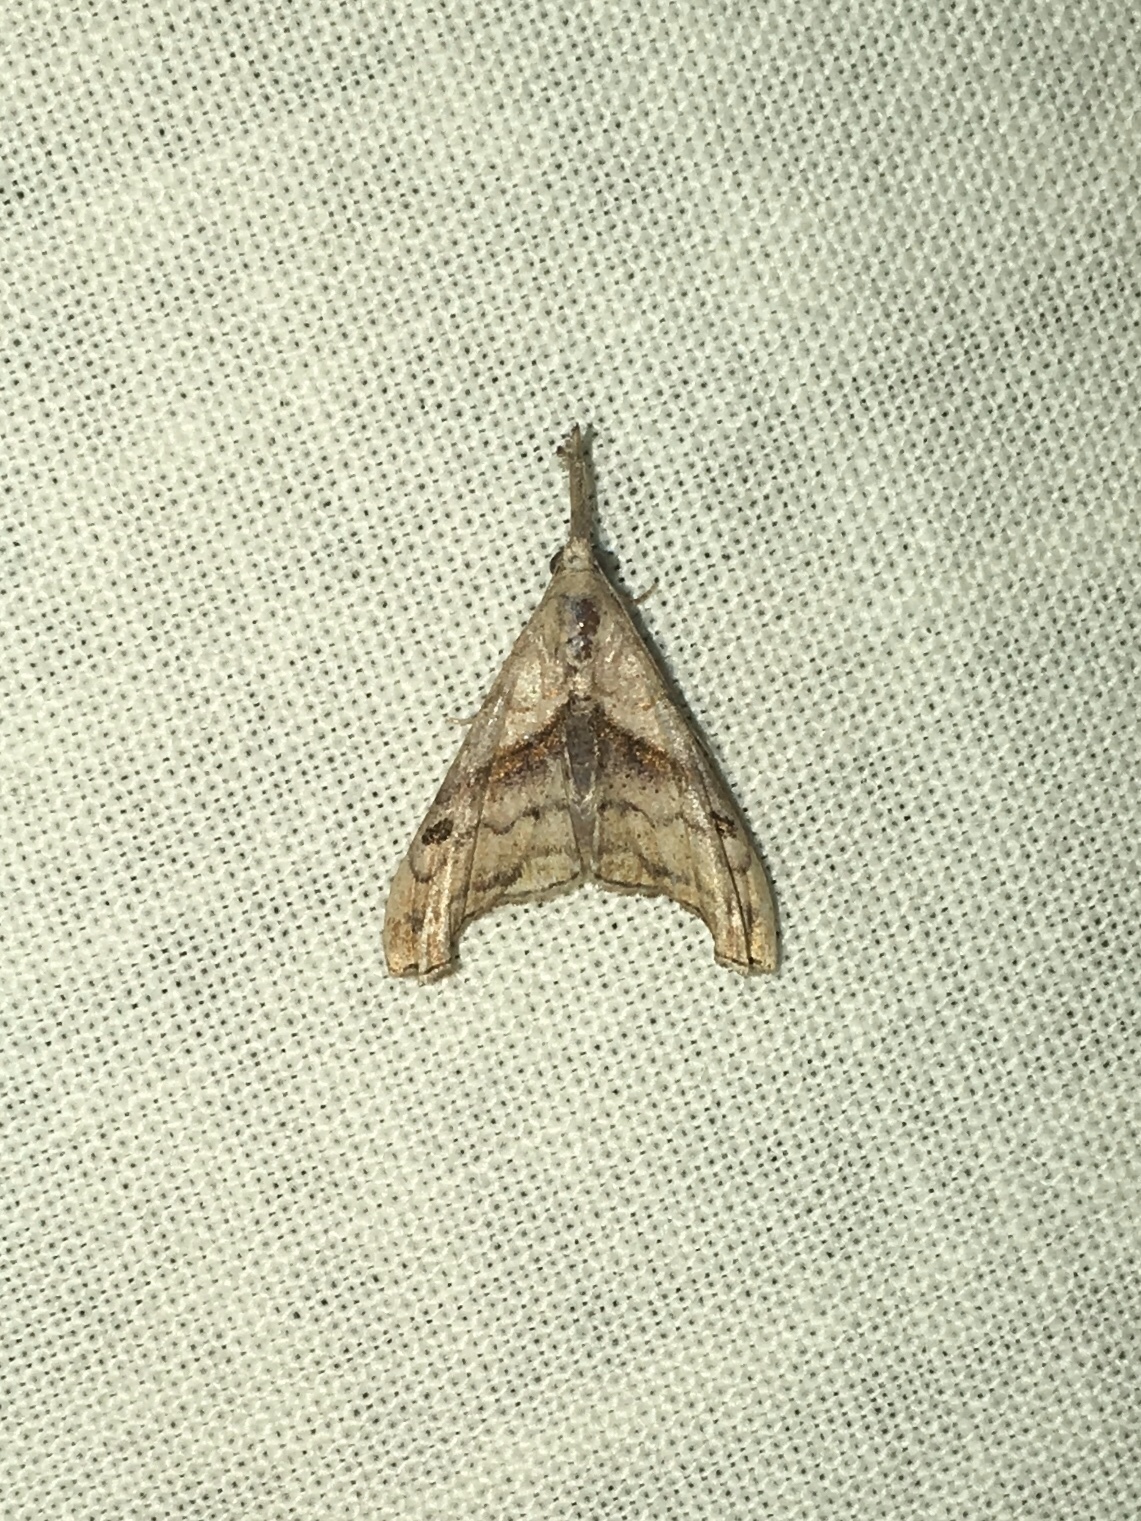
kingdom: Animalia
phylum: Arthropoda
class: Insecta
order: Lepidoptera
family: Erebidae
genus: Palthis
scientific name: Palthis angulalis
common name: Dark-spotted palthis moth
